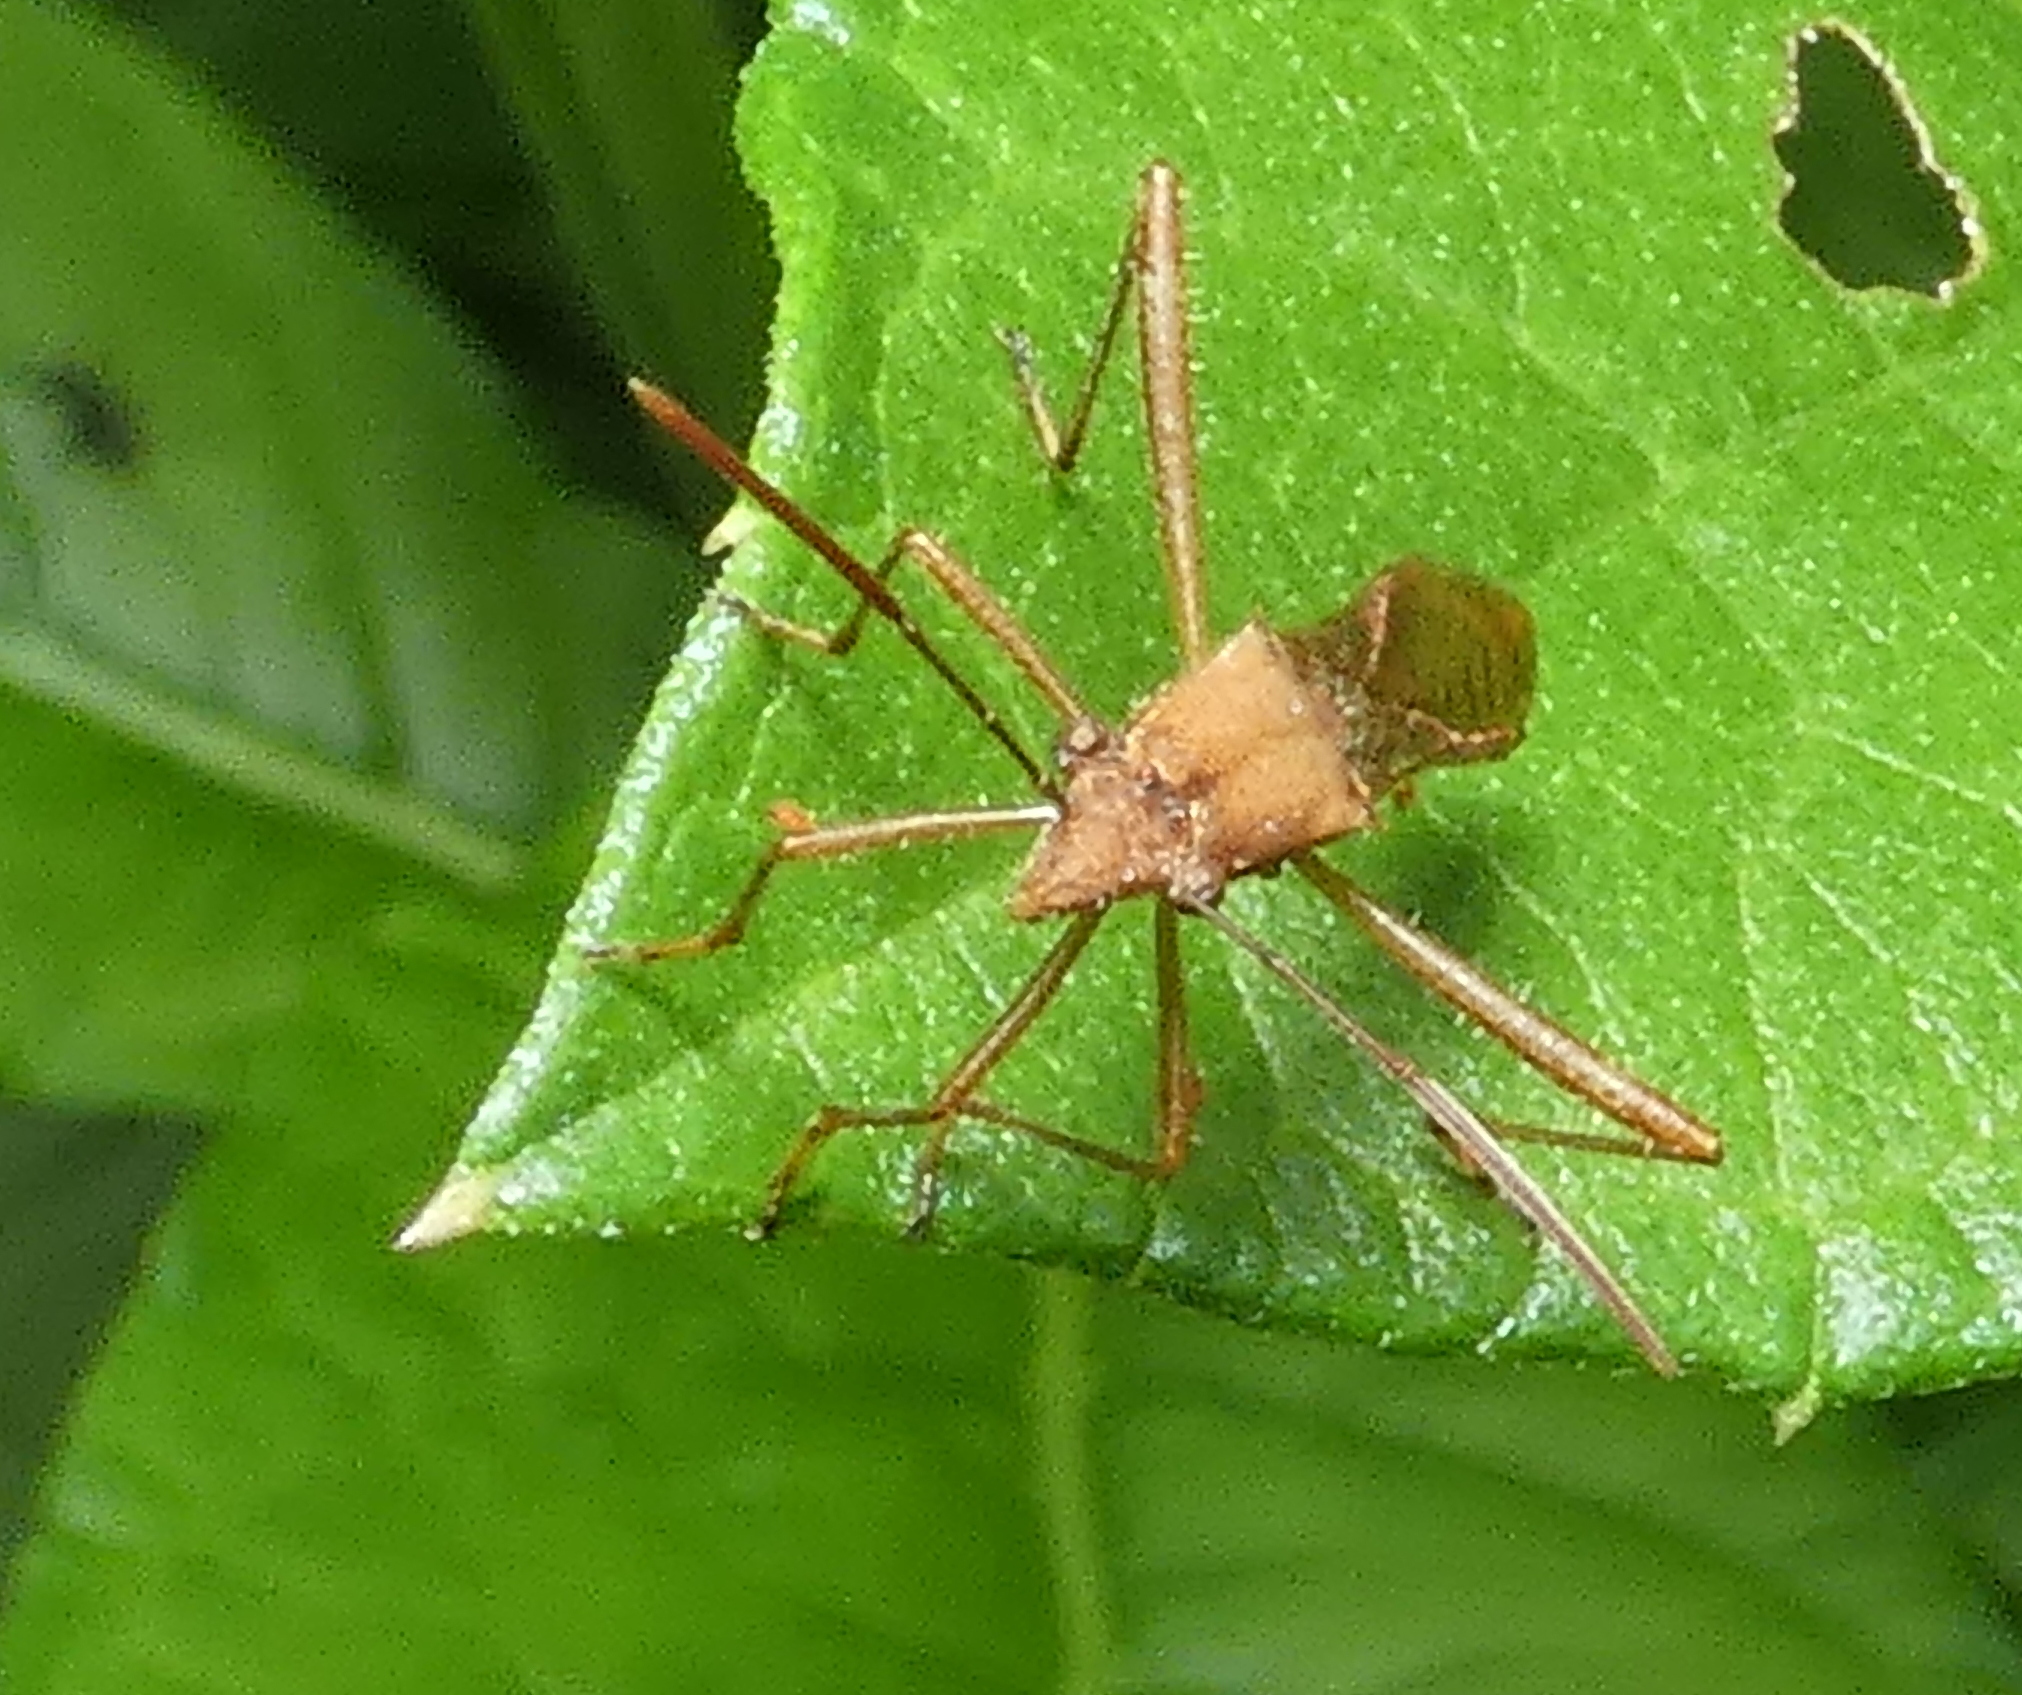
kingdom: Animalia
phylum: Arthropoda
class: Insecta
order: Hemiptera
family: Alydidae
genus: Neomegalotomus
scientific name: Neomegalotomus parvus
